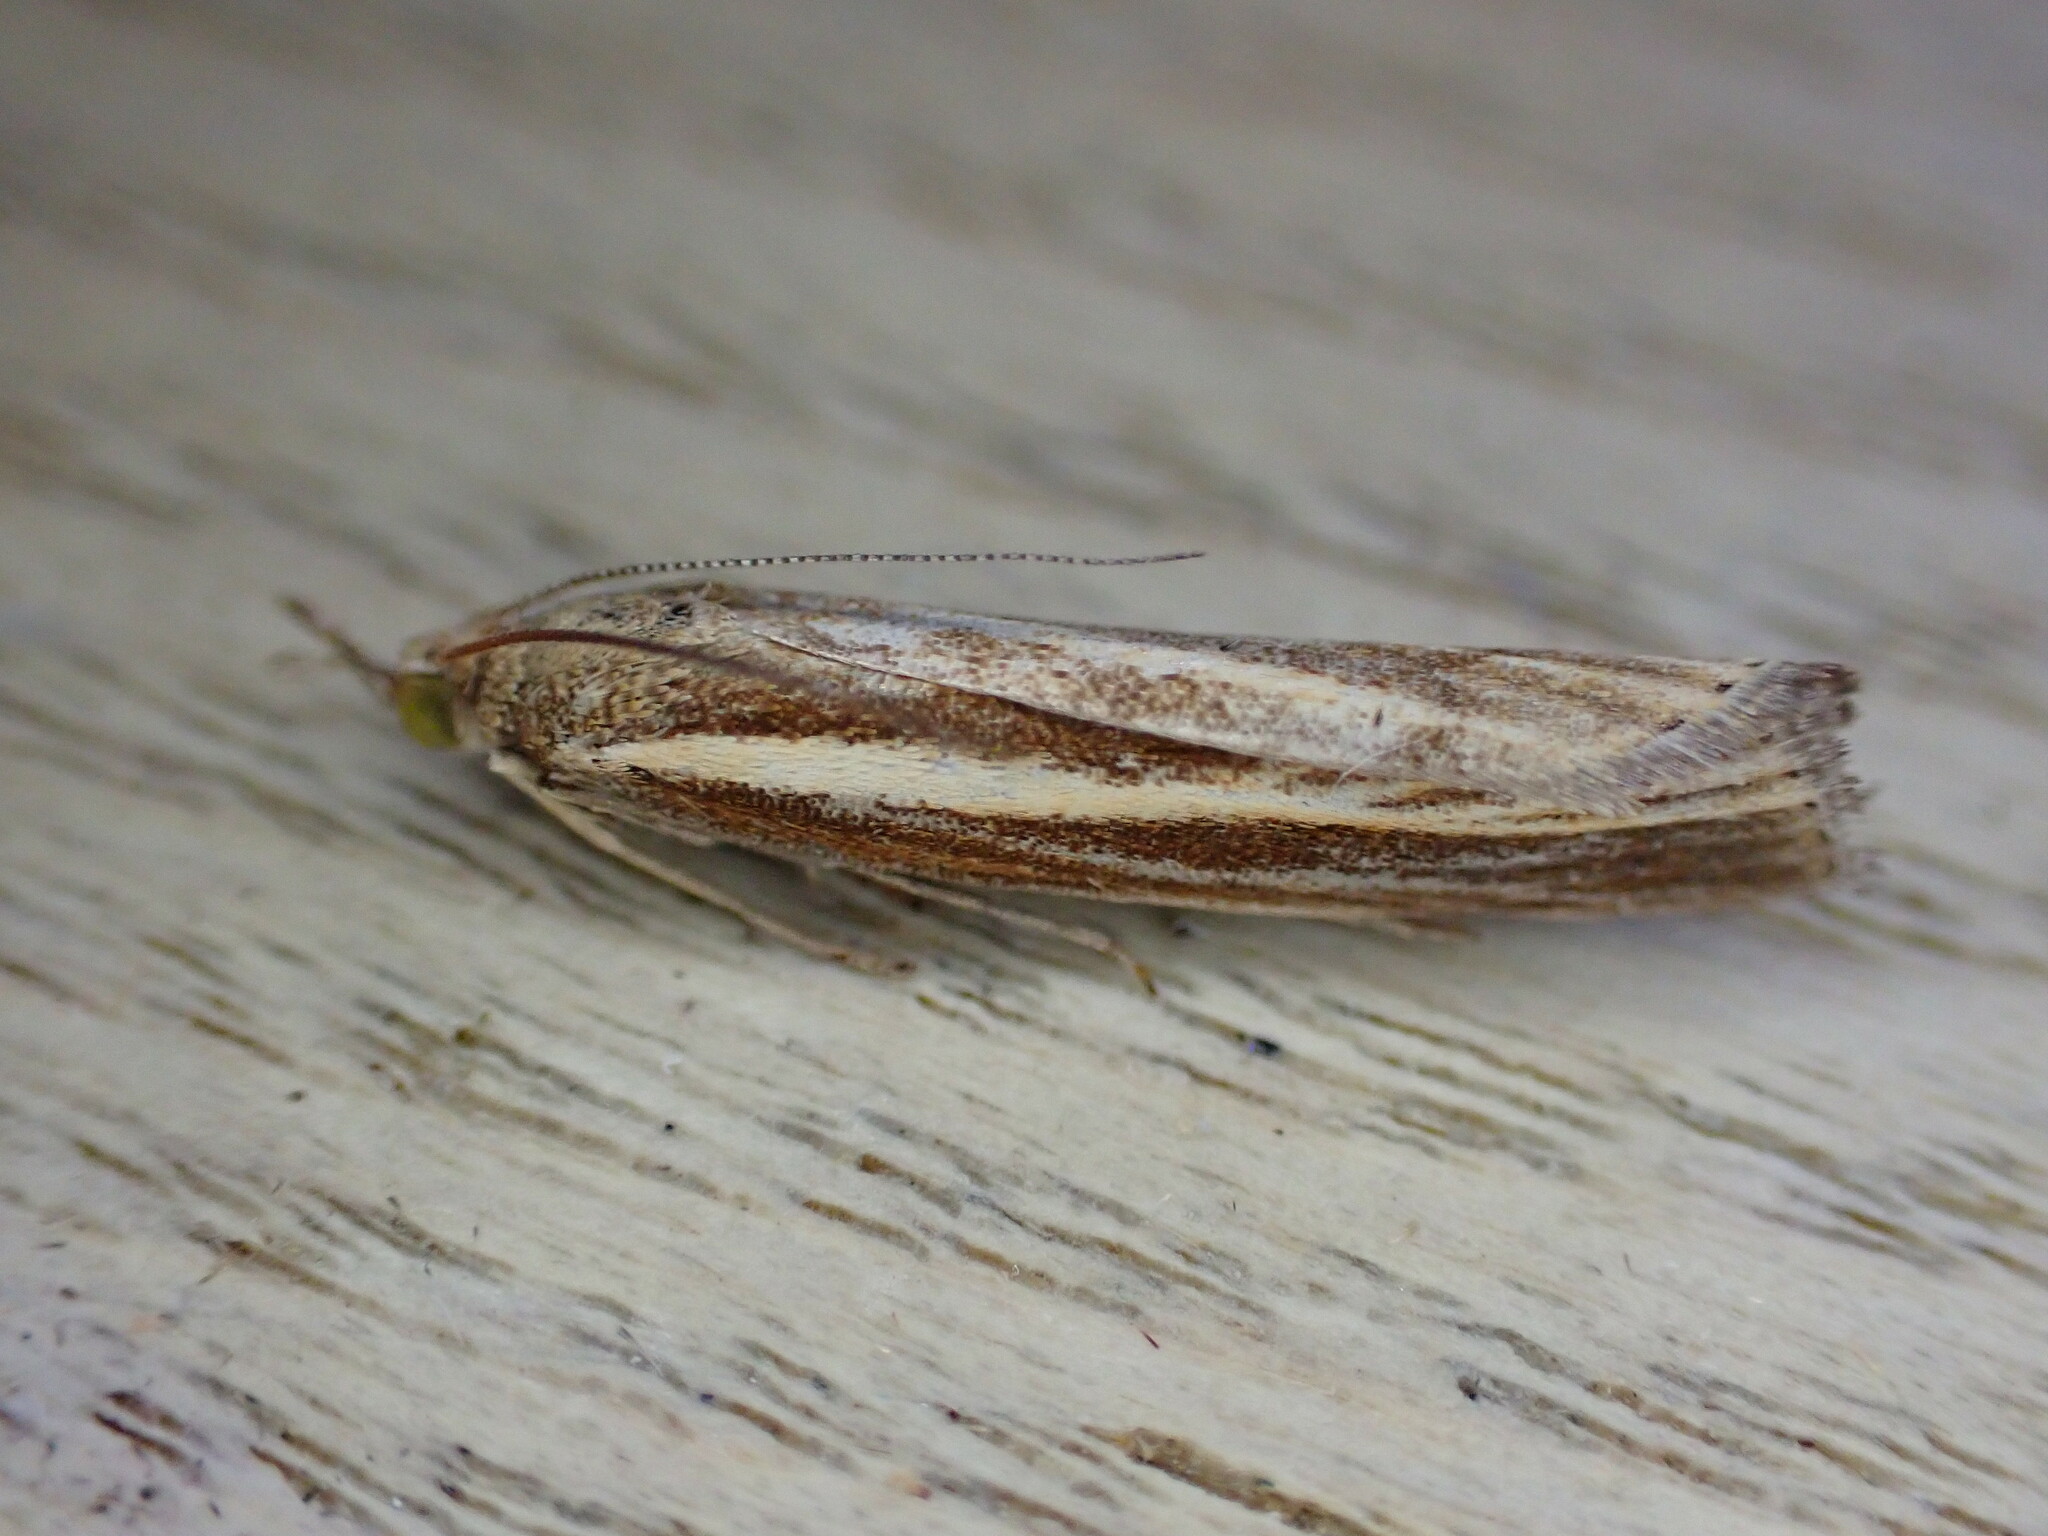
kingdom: Animalia
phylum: Arthropoda
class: Insecta
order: Lepidoptera
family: Crambidae
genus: Agriphila
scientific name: Agriphila tristellus
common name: Common grass-veneer
